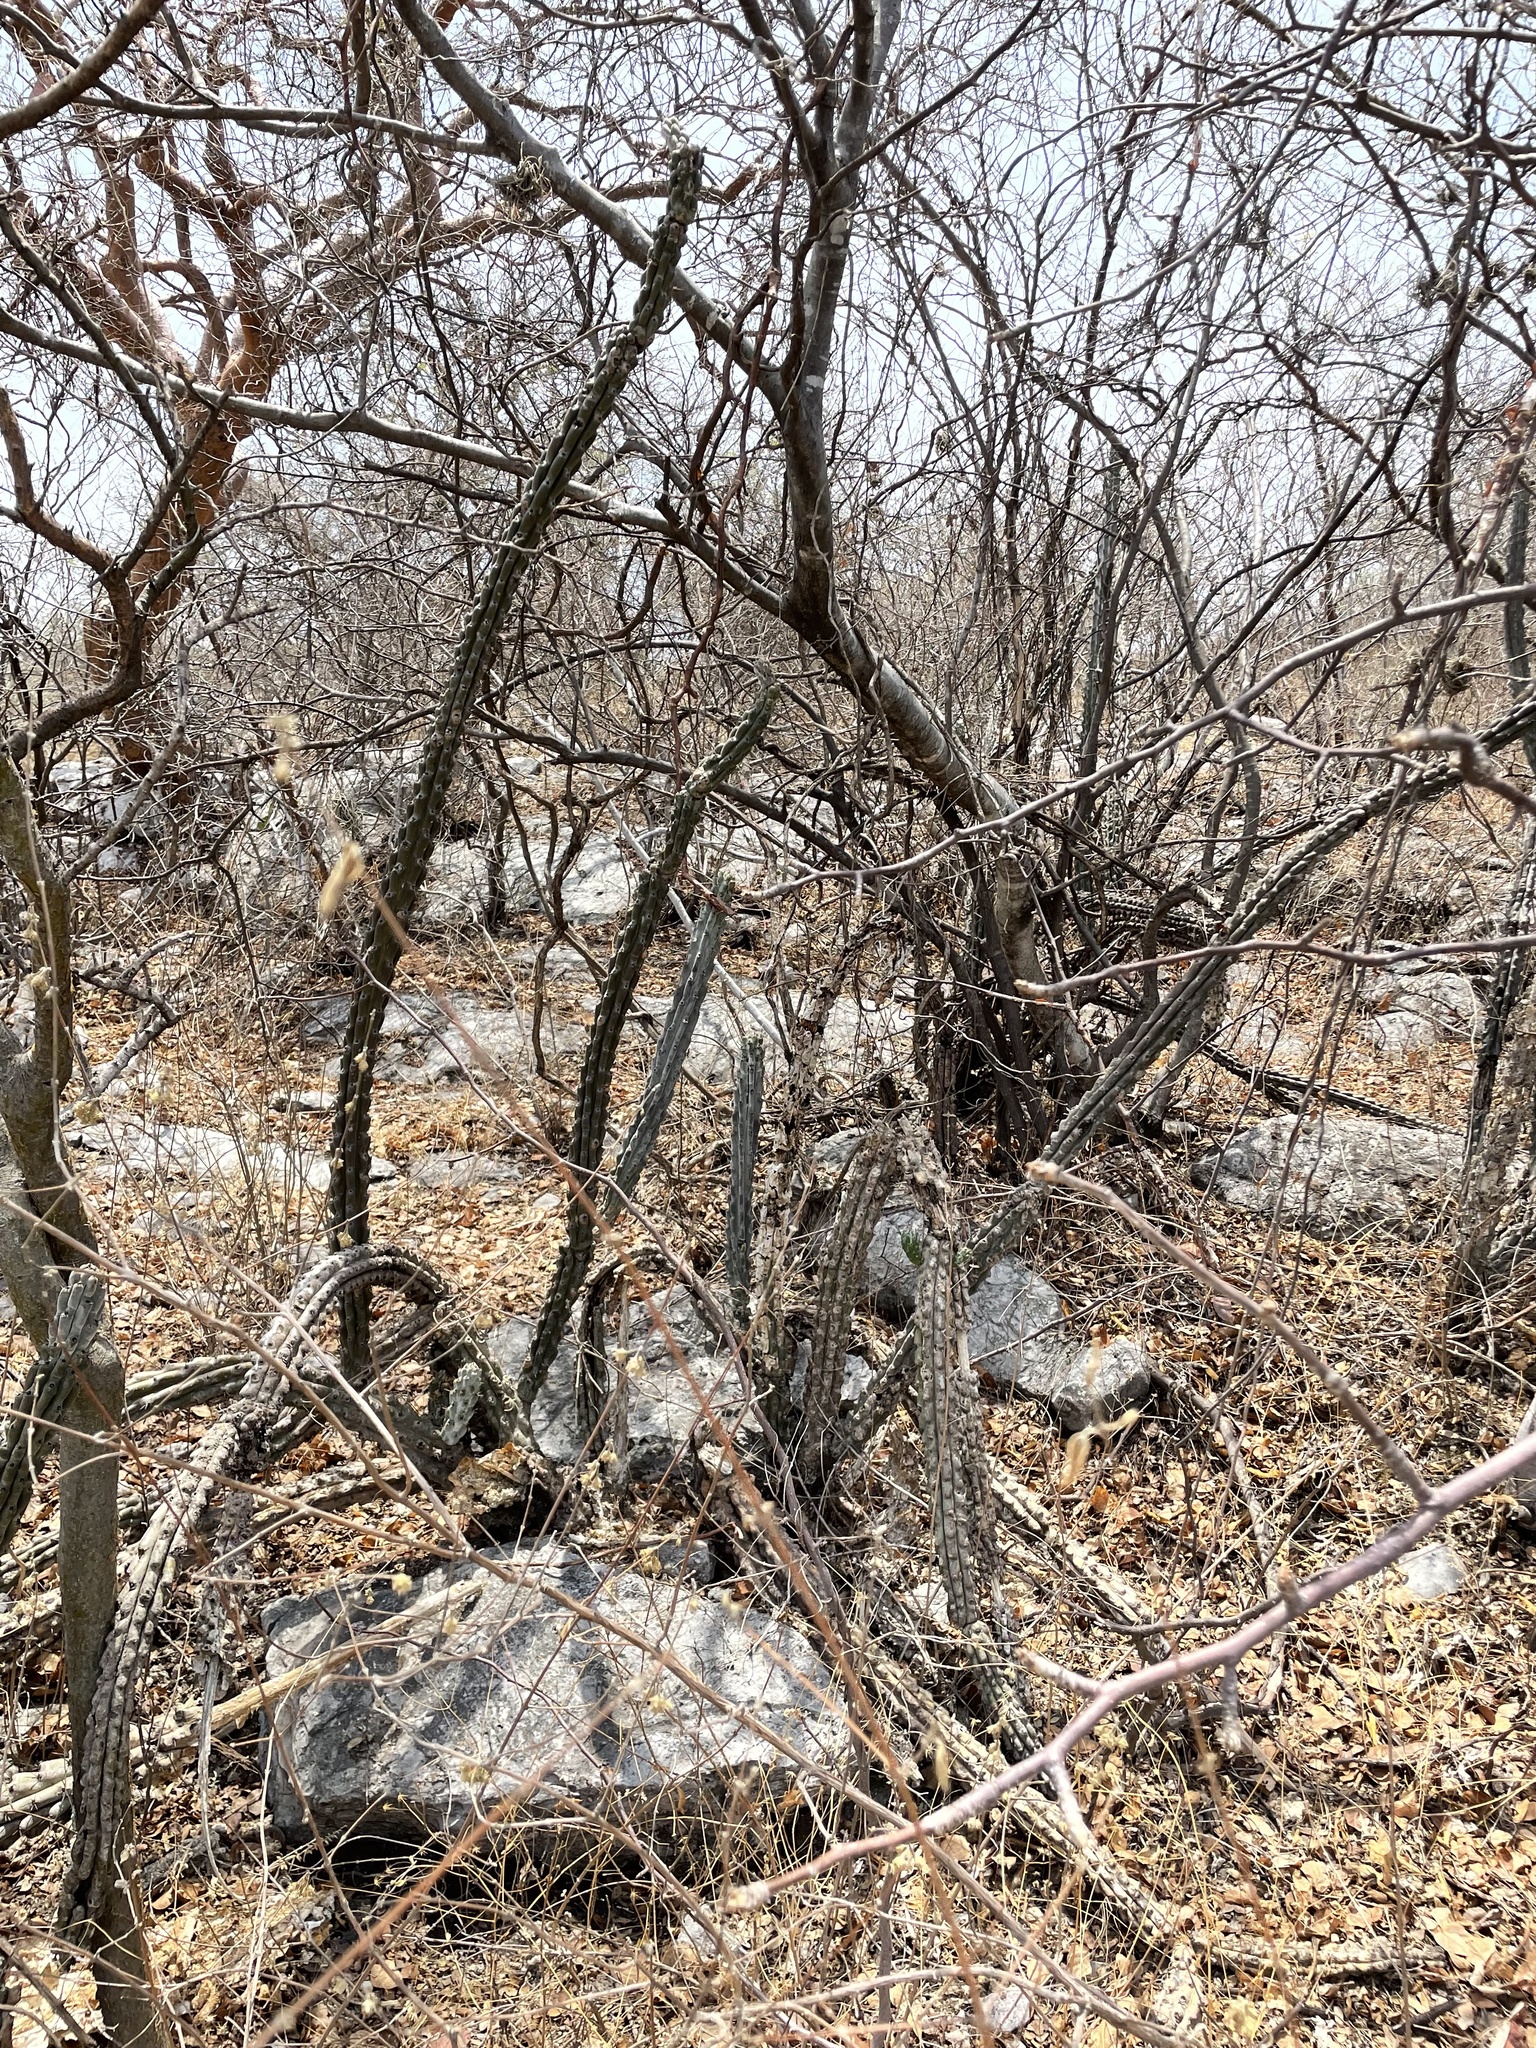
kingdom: Plantae
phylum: Tracheophyta
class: Magnoliopsida
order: Caryophyllales
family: Cactaceae
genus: Stenocereus
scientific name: Stenocereus beneckei
